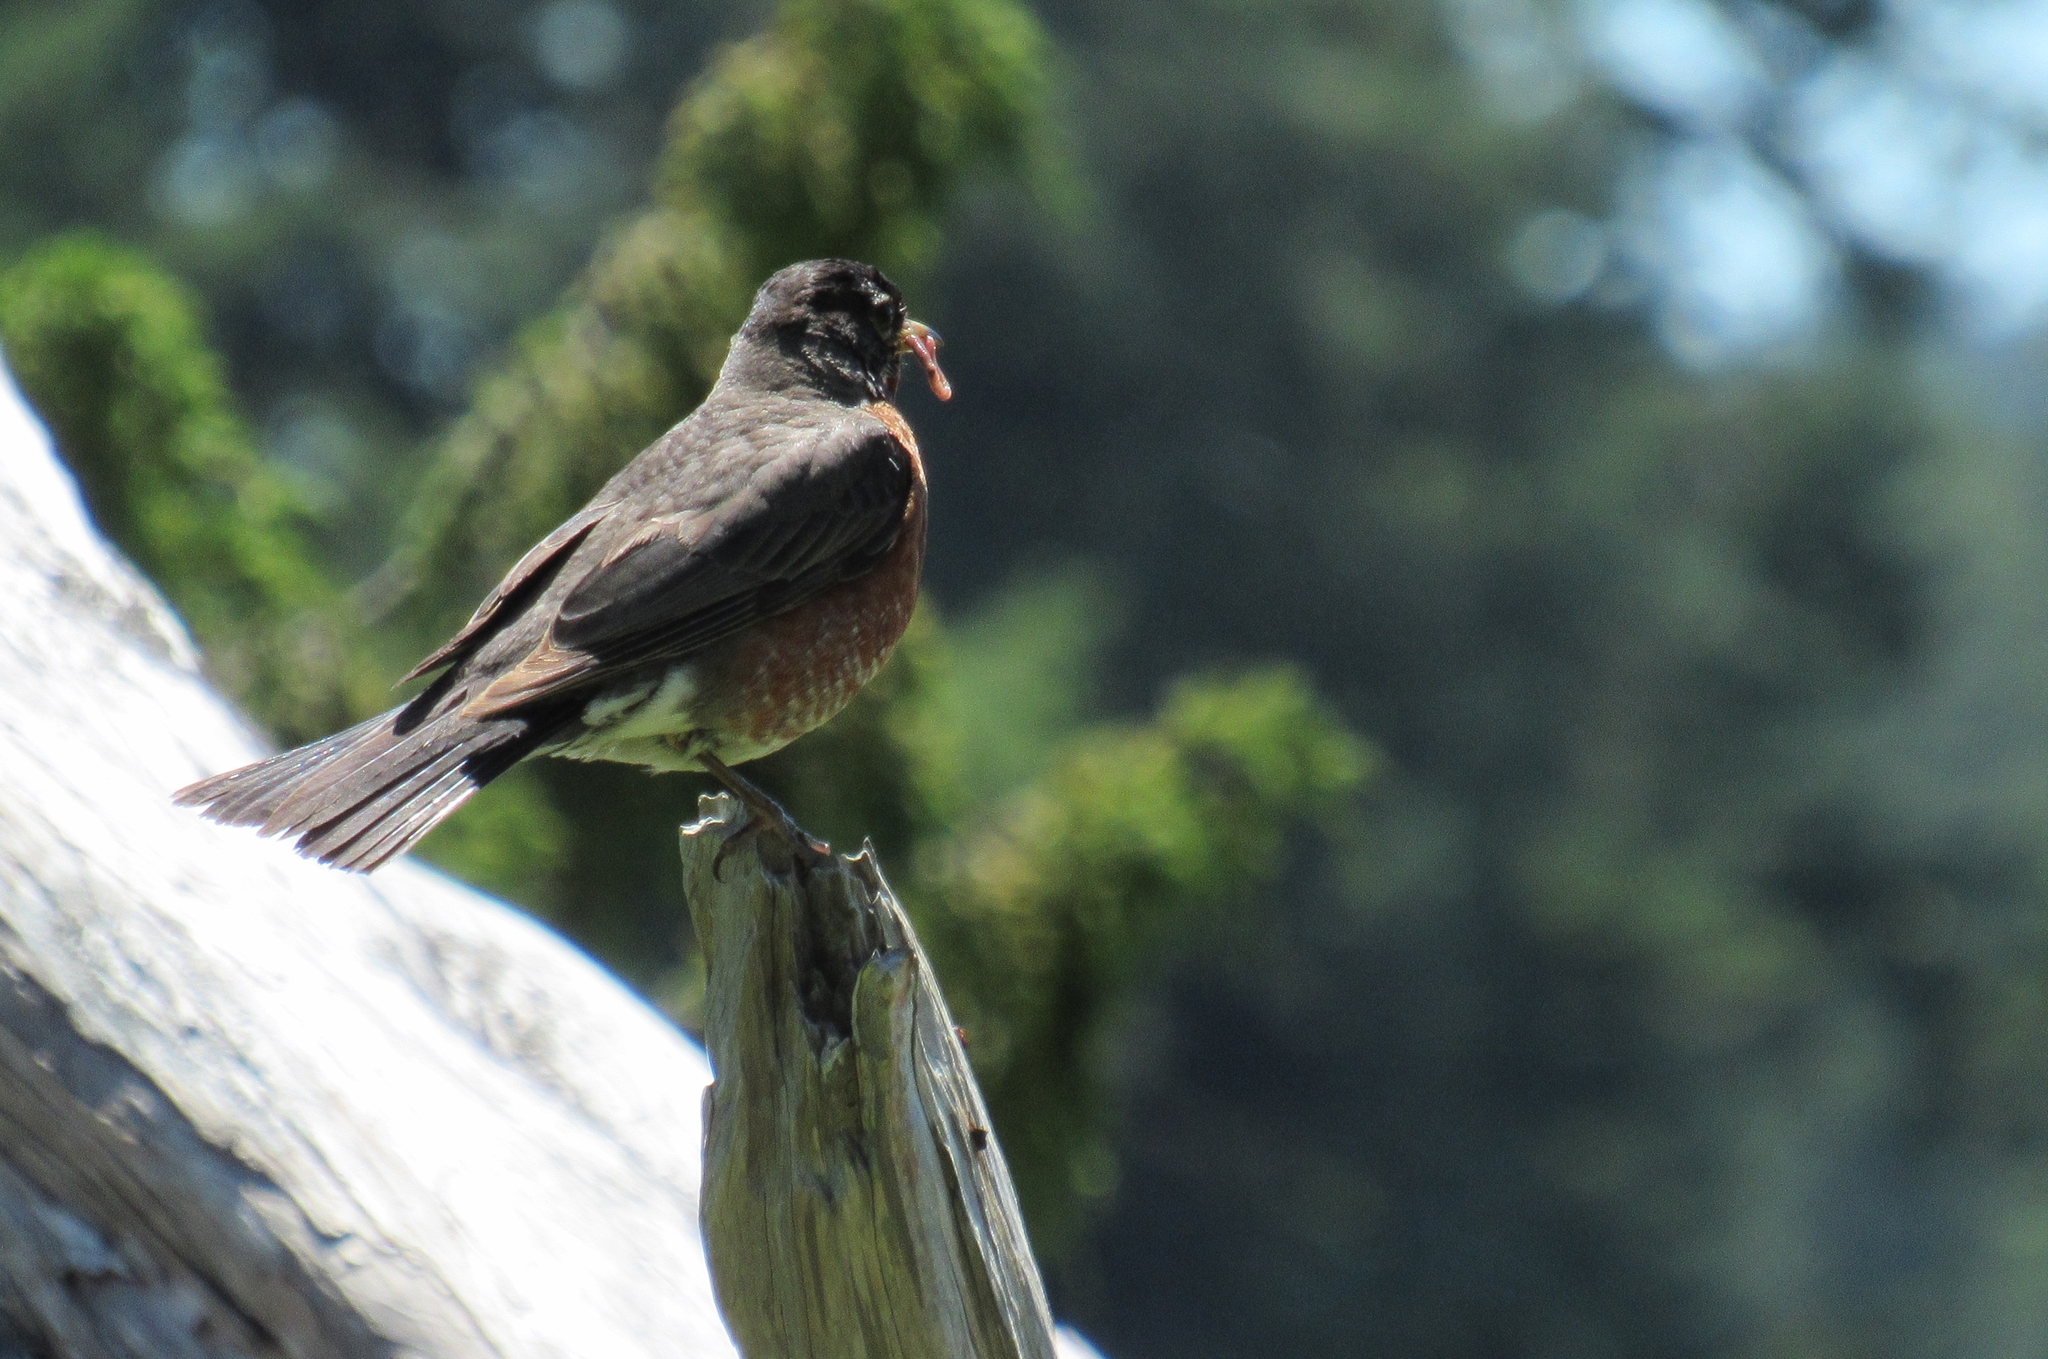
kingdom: Animalia
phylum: Chordata
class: Aves
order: Passeriformes
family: Turdidae
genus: Turdus
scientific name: Turdus migratorius
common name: American robin
